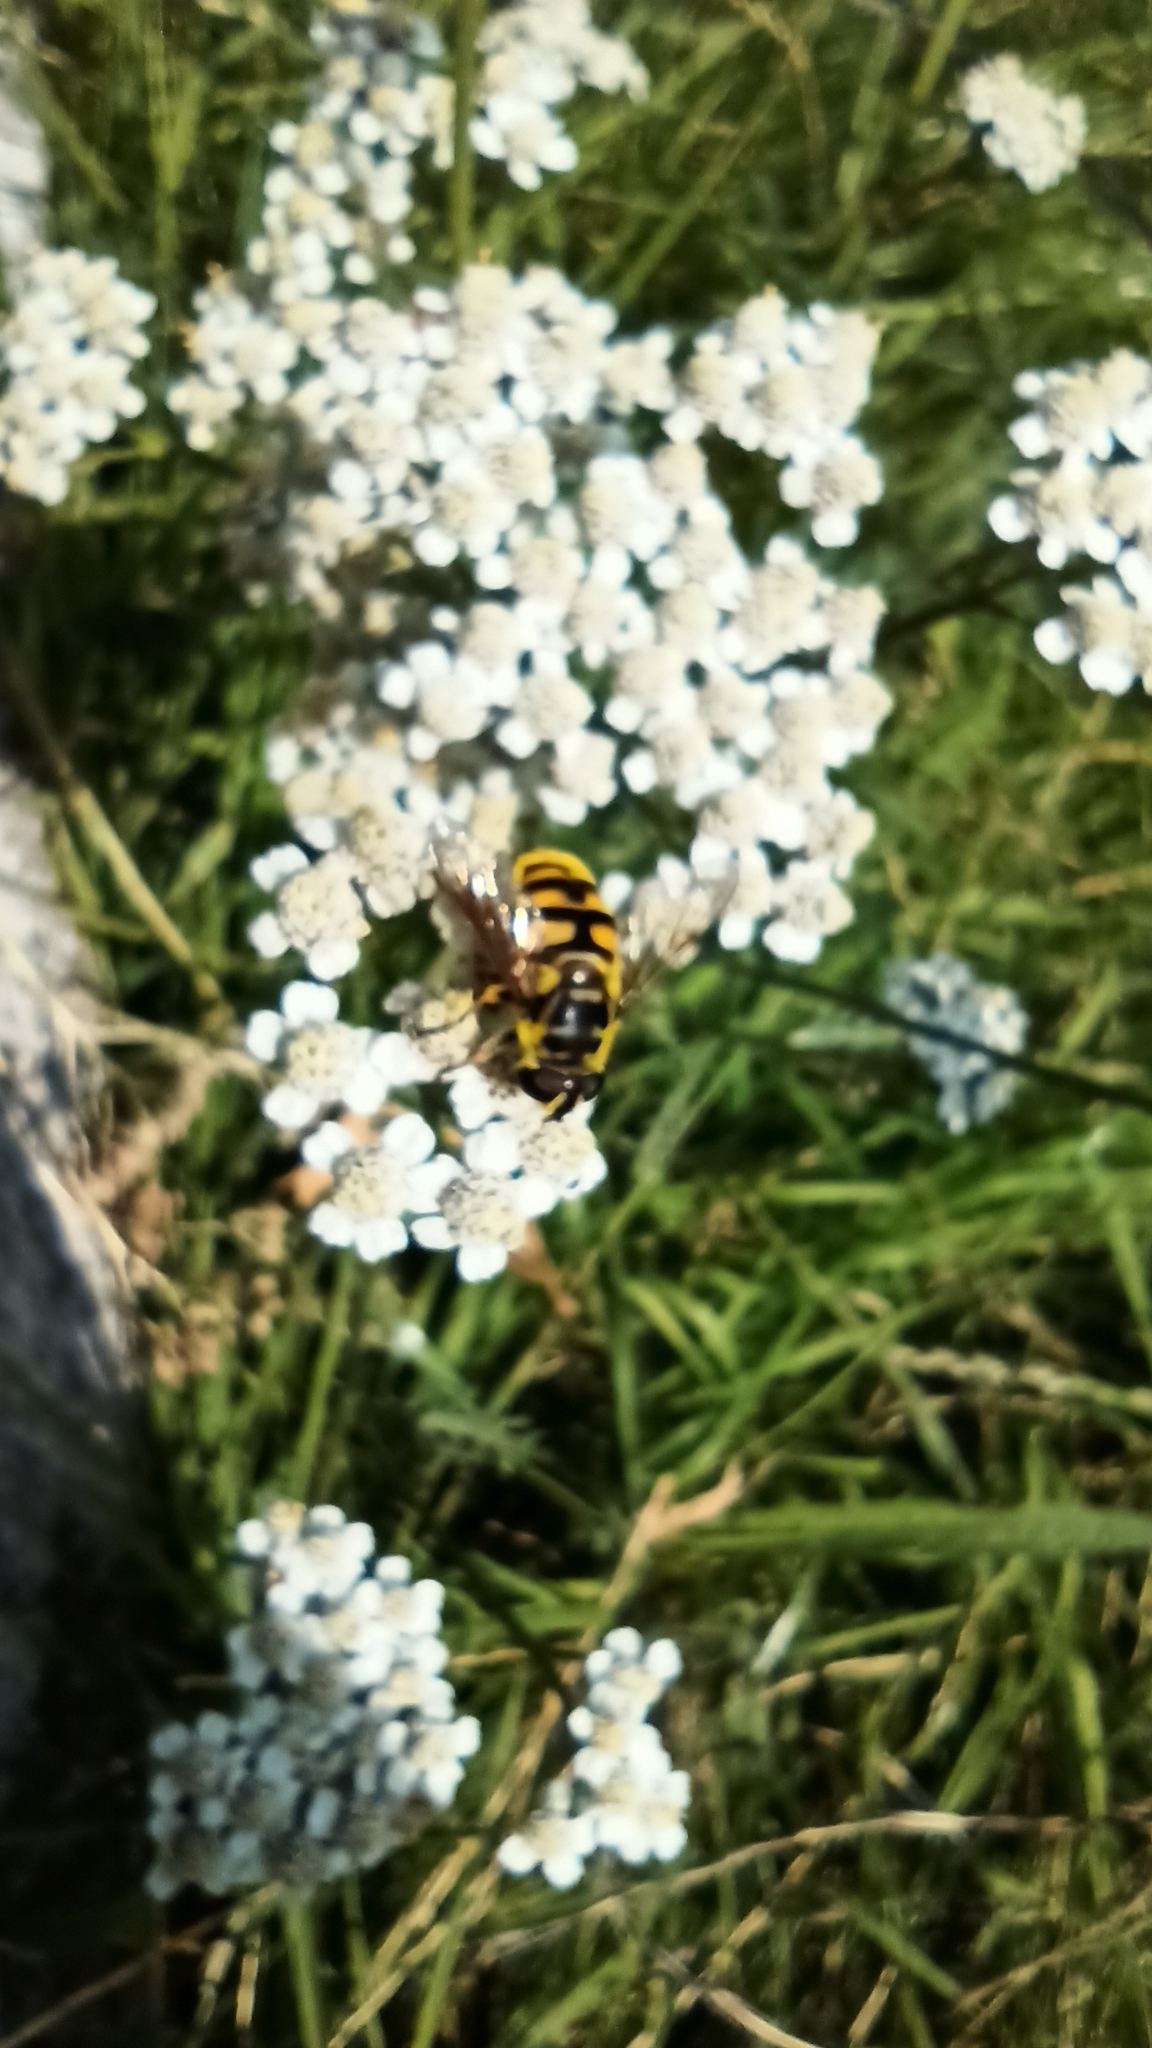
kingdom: Animalia
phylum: Arthropoda
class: Insecta
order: Diptera
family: Syrphidae
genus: Myathropa
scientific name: Myathropa florea
